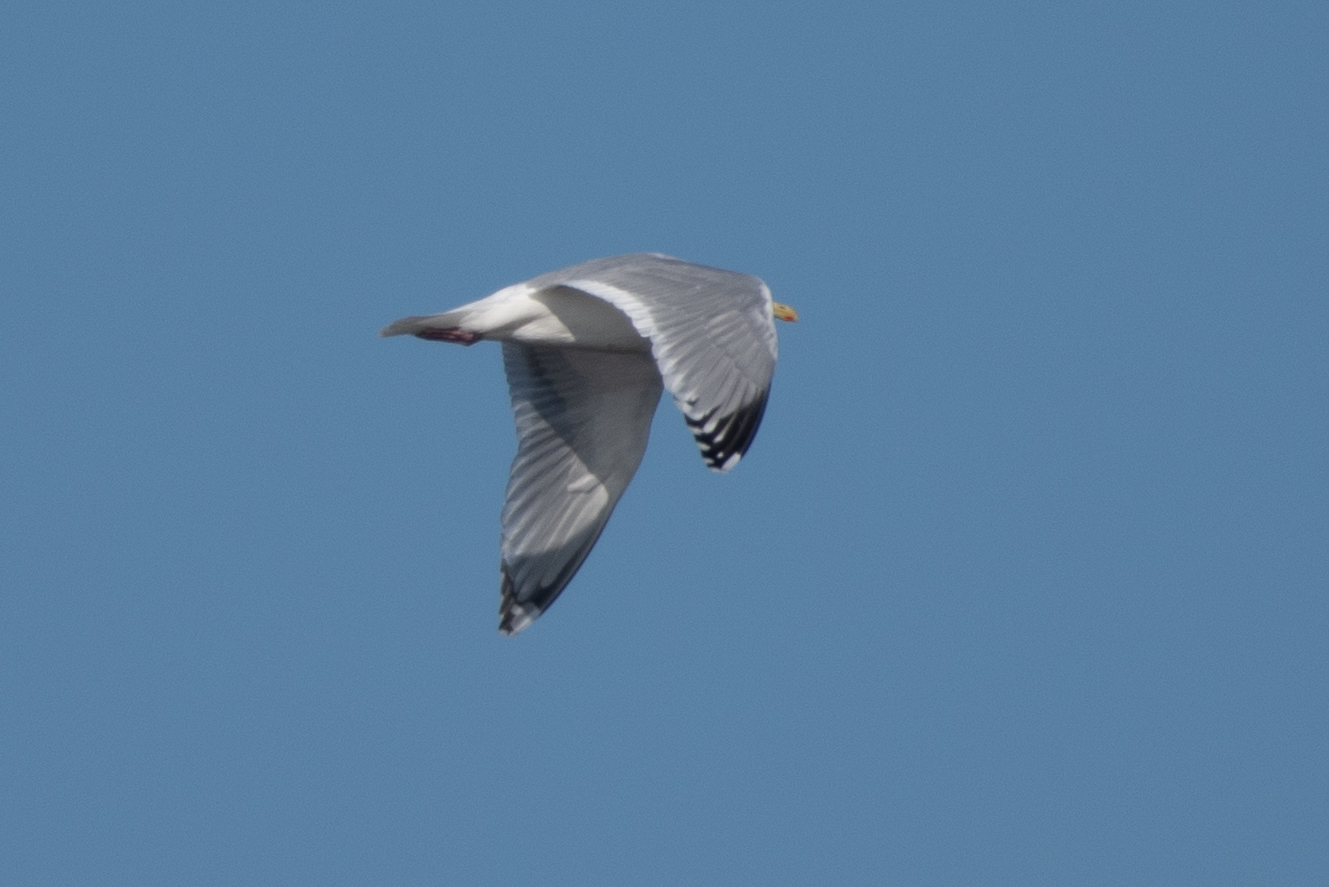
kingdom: Animalia
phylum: Chordata
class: Aves
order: Charadriiformes
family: Laridae
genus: Larus
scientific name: Larus glaucoides
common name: Iceland gull
